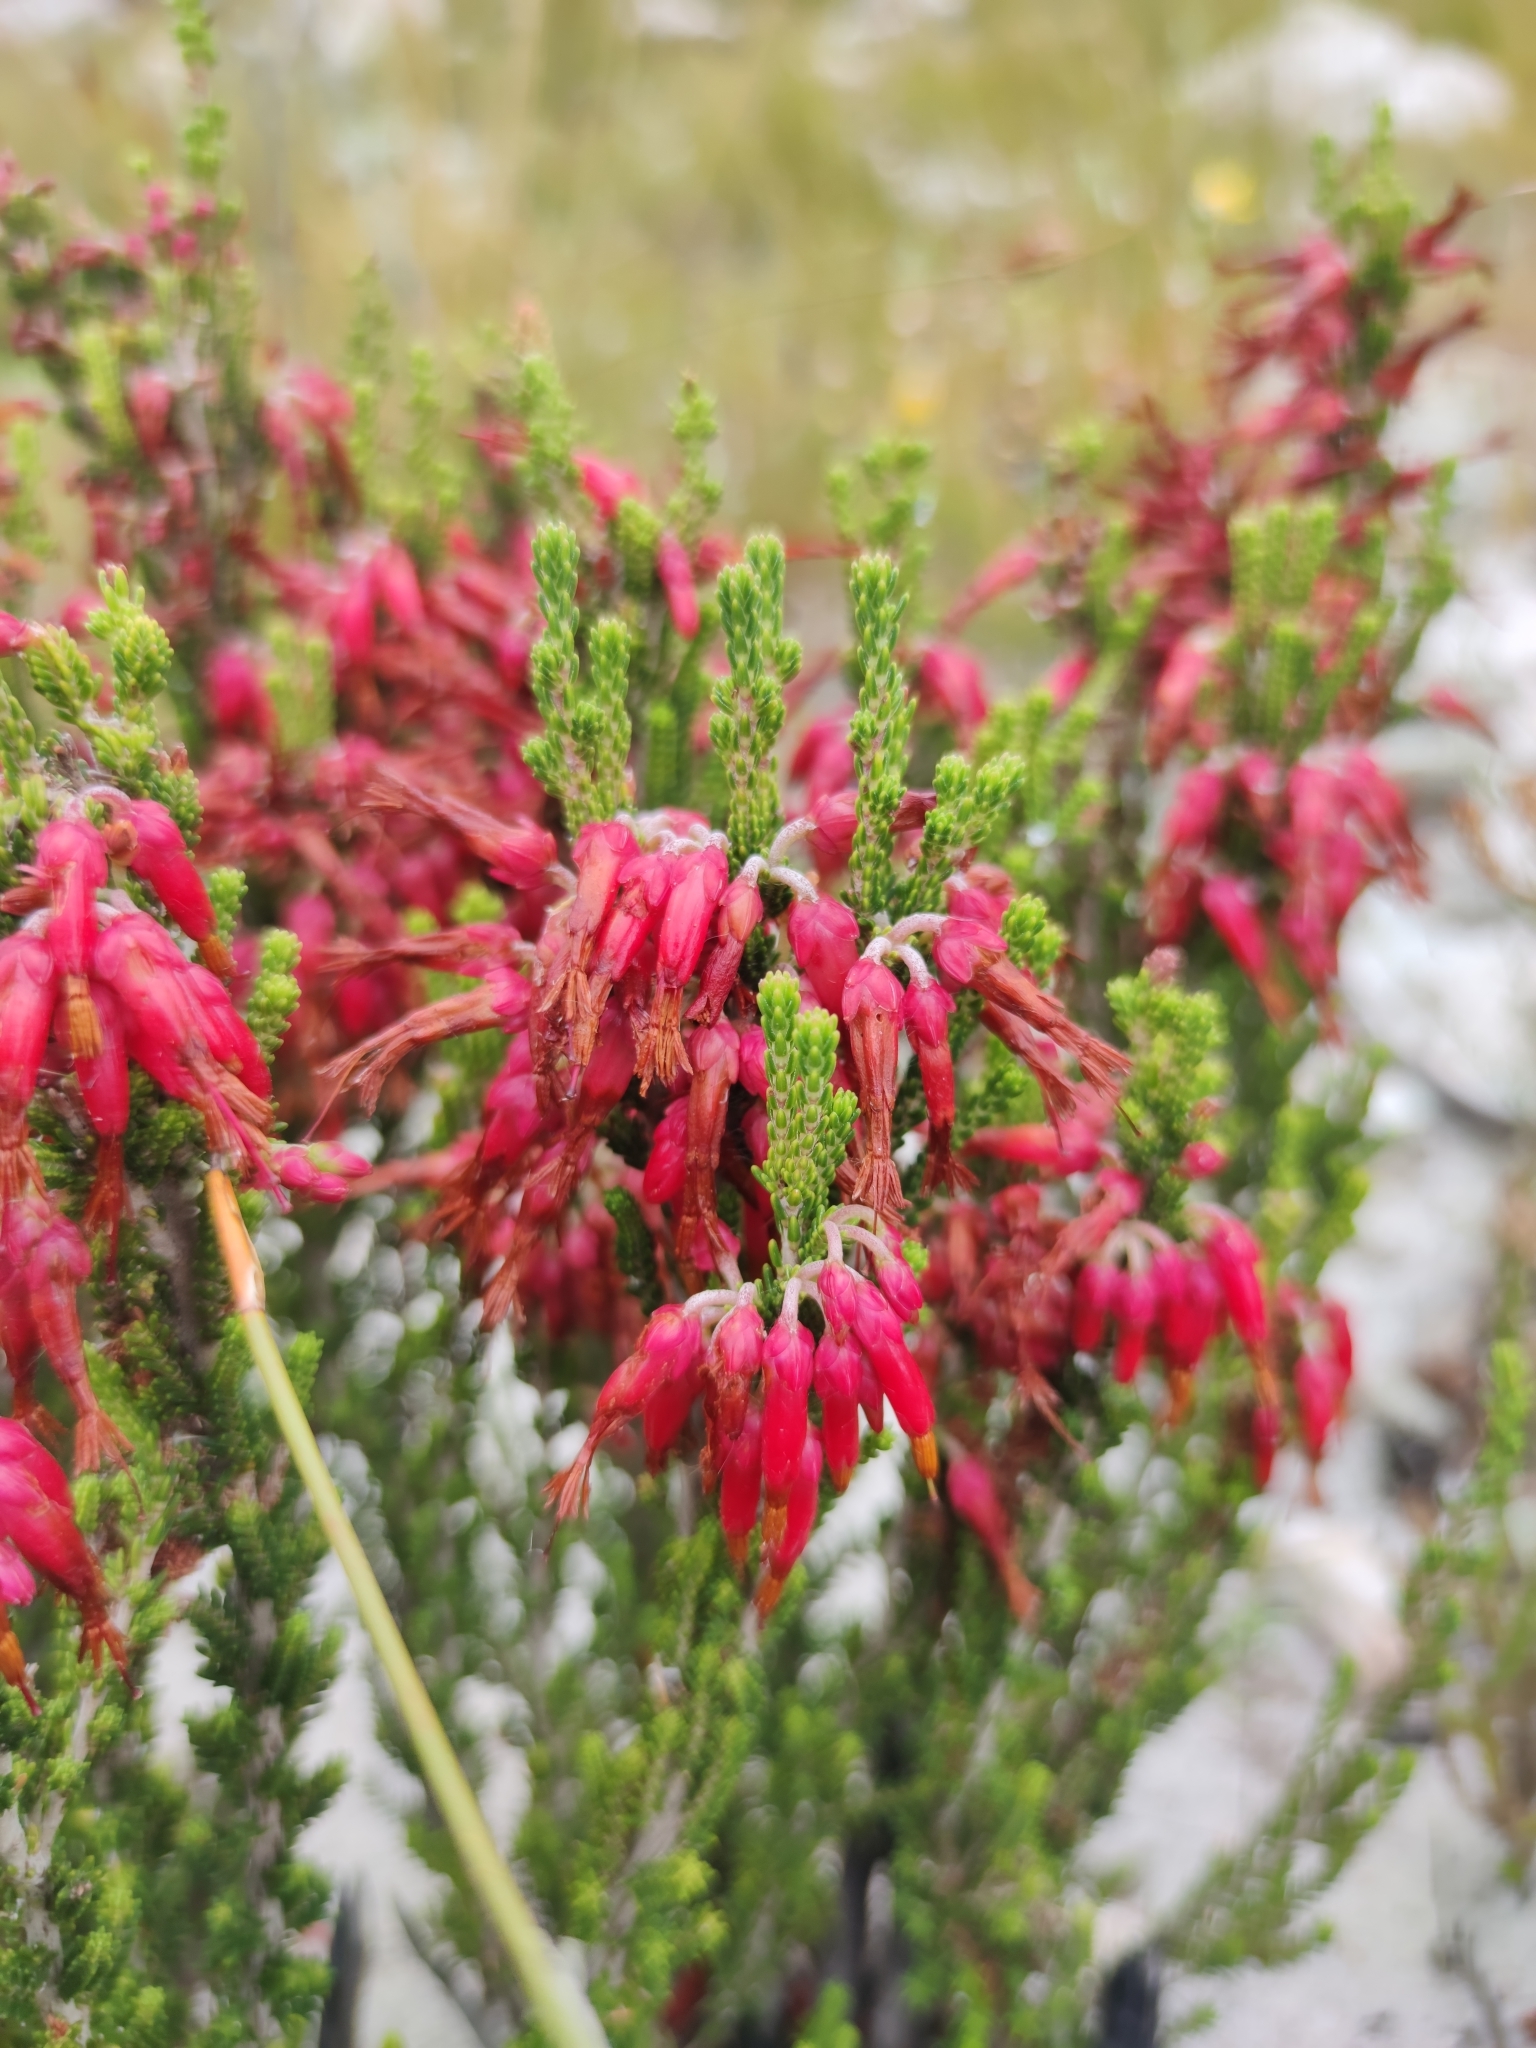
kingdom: Plantae
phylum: Tracheophyta
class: Magnoliopsida
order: Ericales
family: Ericaceae
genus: Erica
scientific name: Erica monadelphia
